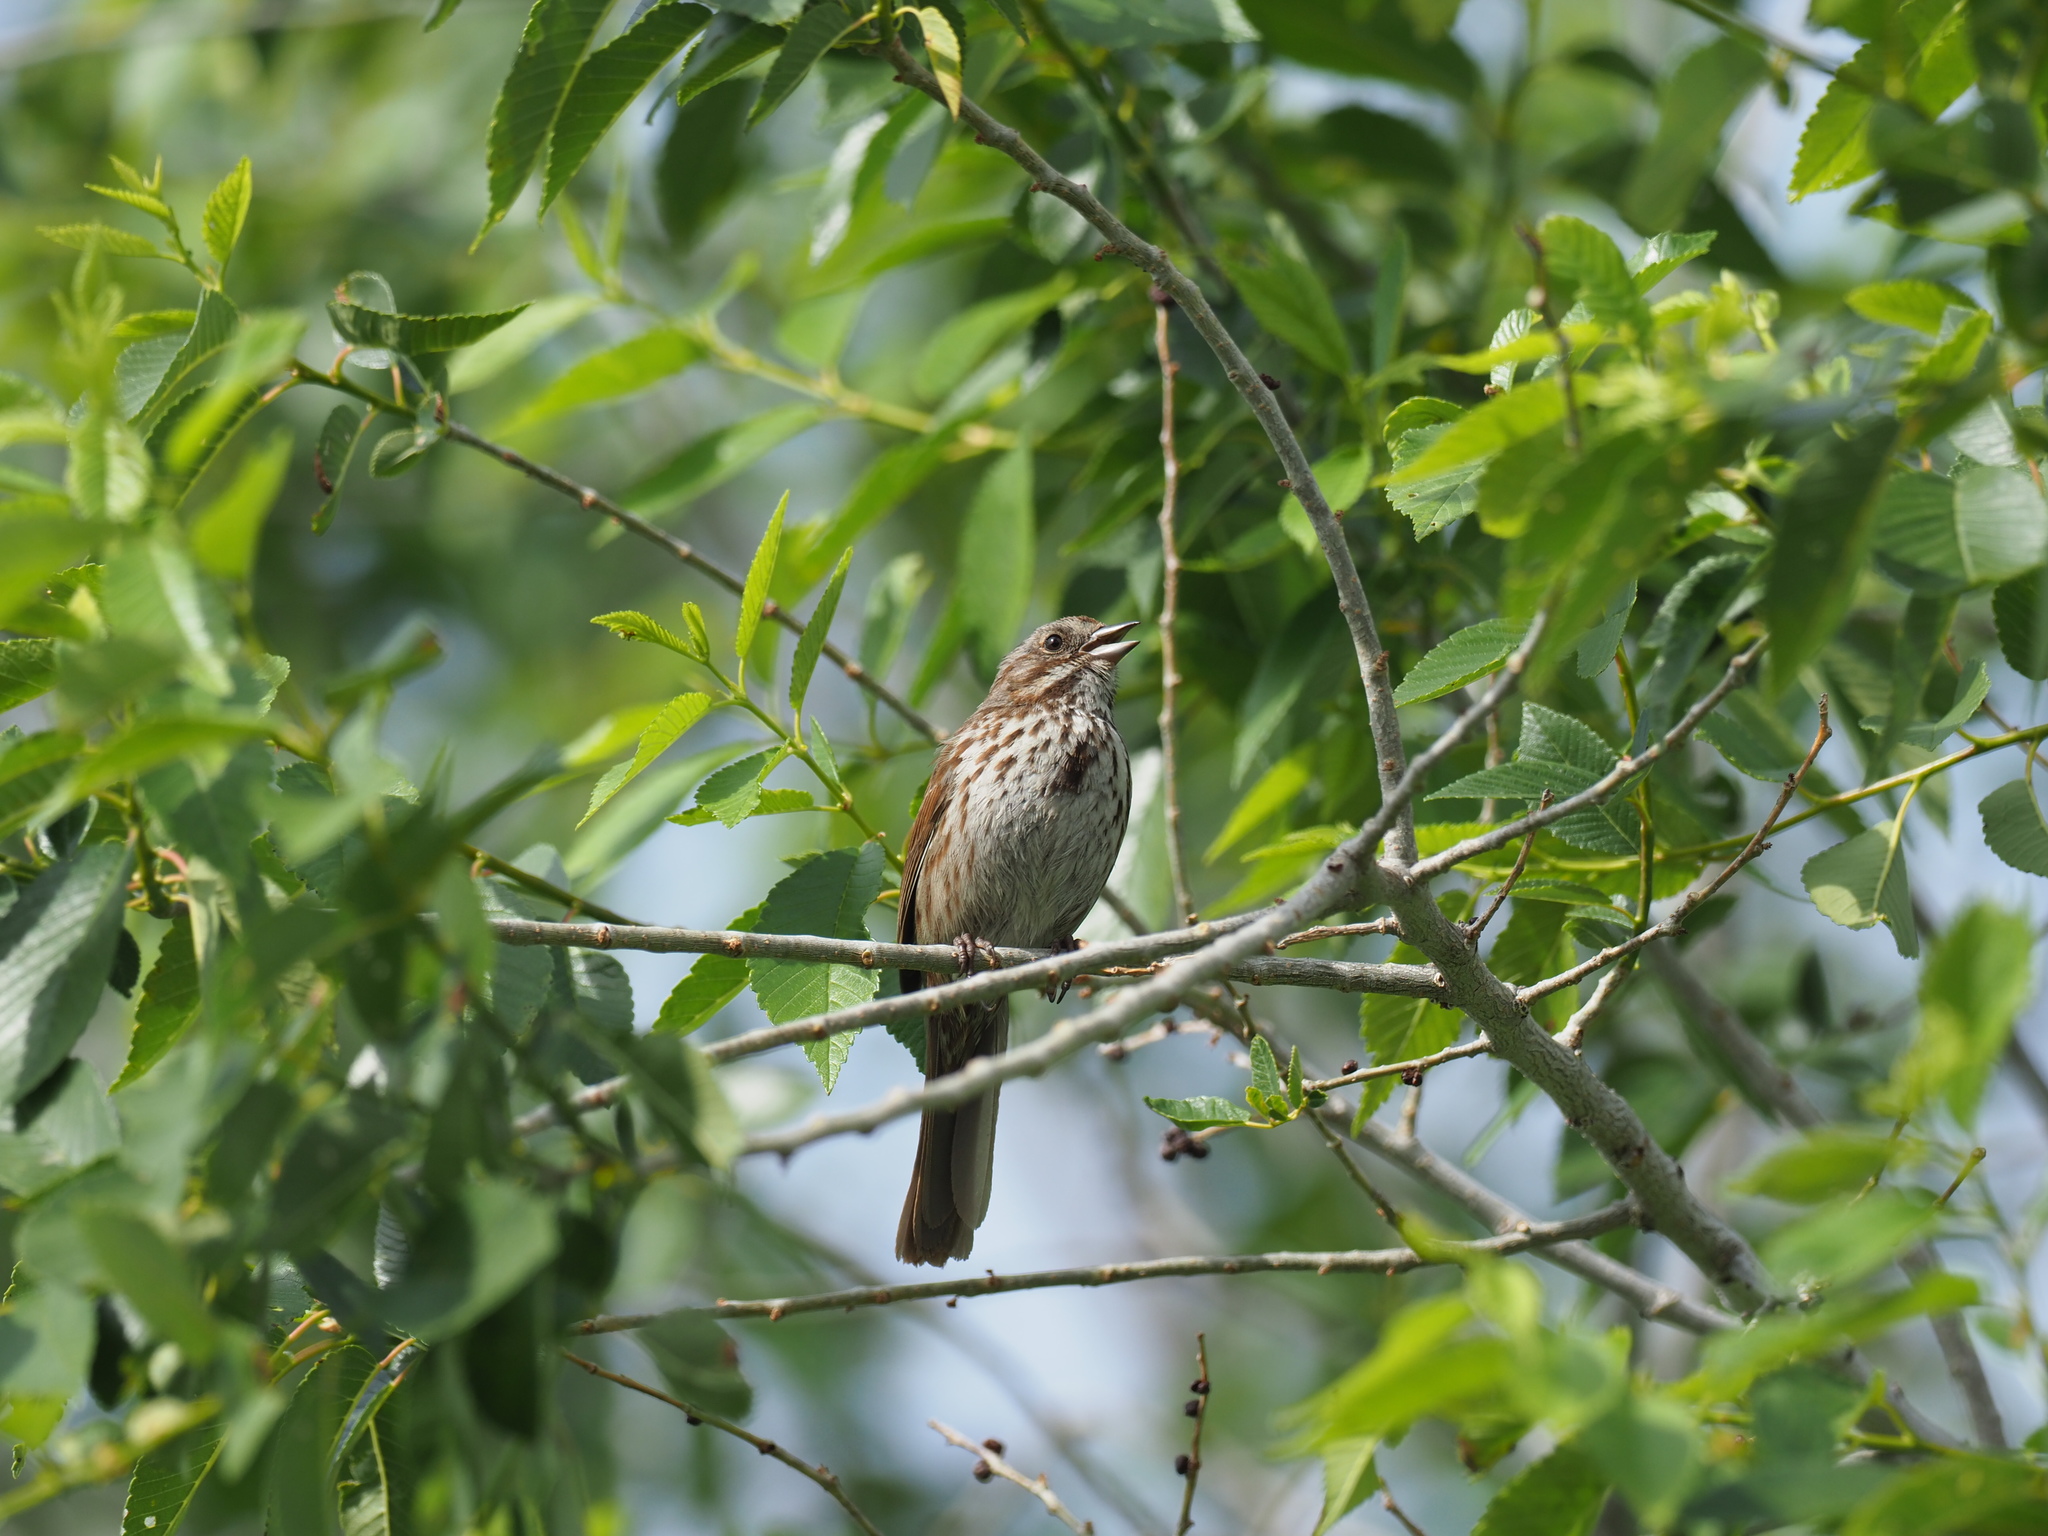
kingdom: Animalia
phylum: Chordata
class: Aves
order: Passeriformes
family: Passerellidae
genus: Melospiza
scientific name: Melospiza melodia
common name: Song sparrow
